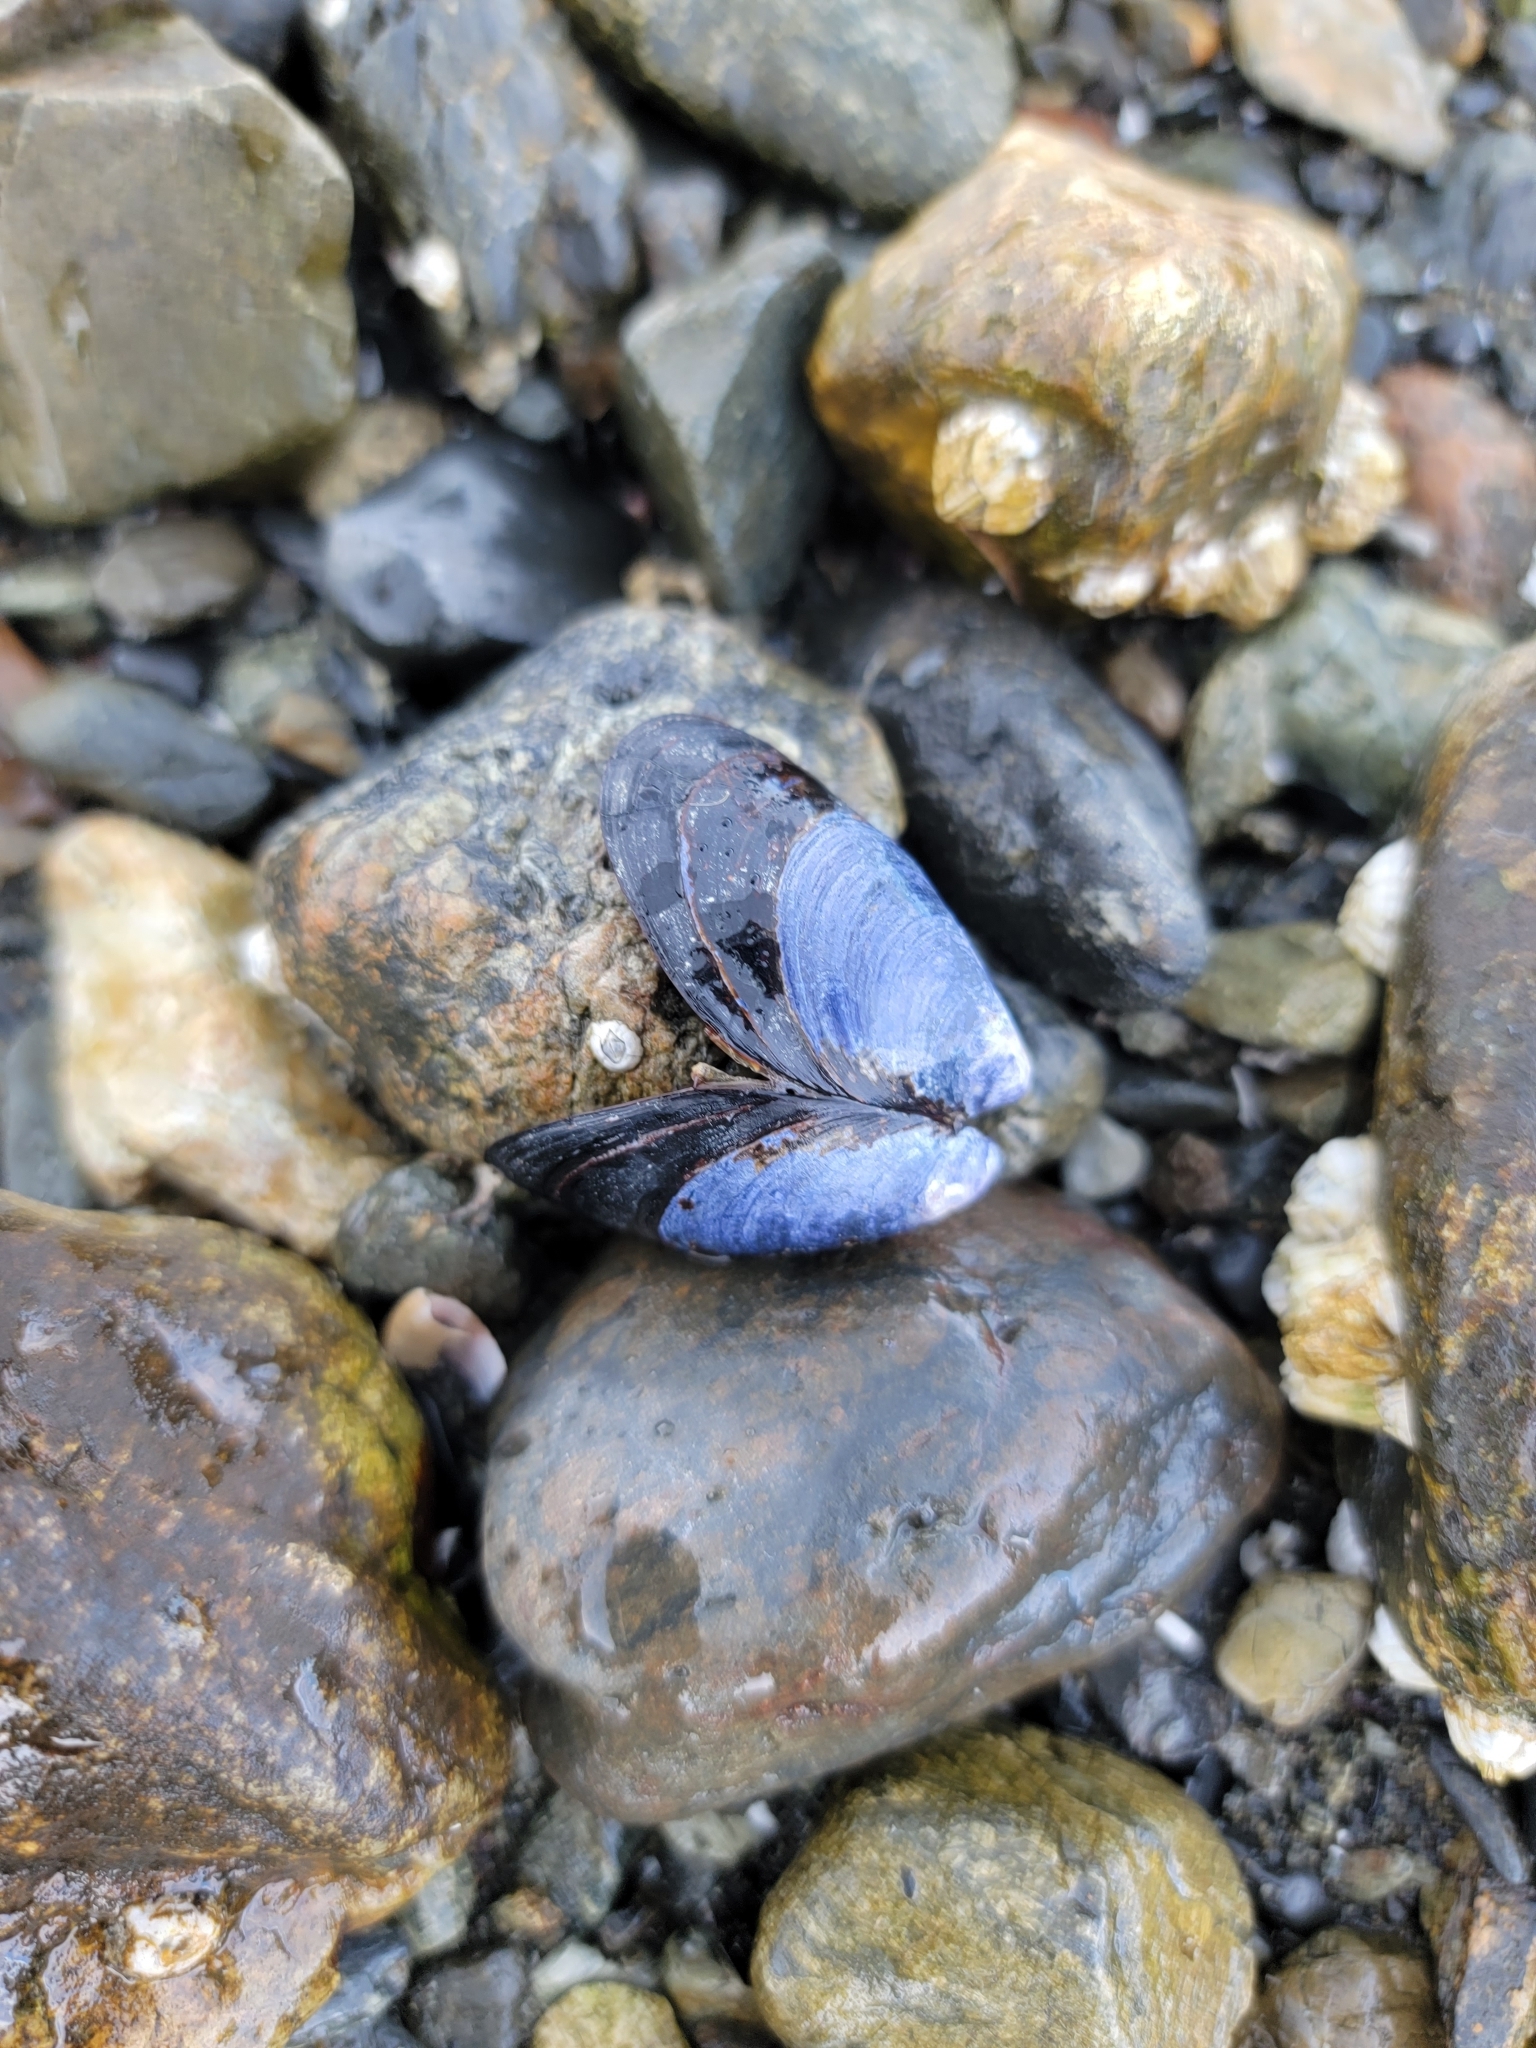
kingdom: Animalia
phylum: Mollusca
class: Bivalvia
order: Mytilida
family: Mytilidae
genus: Mytilus
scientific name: Mytilus trossulus
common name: Northern blue mussel
